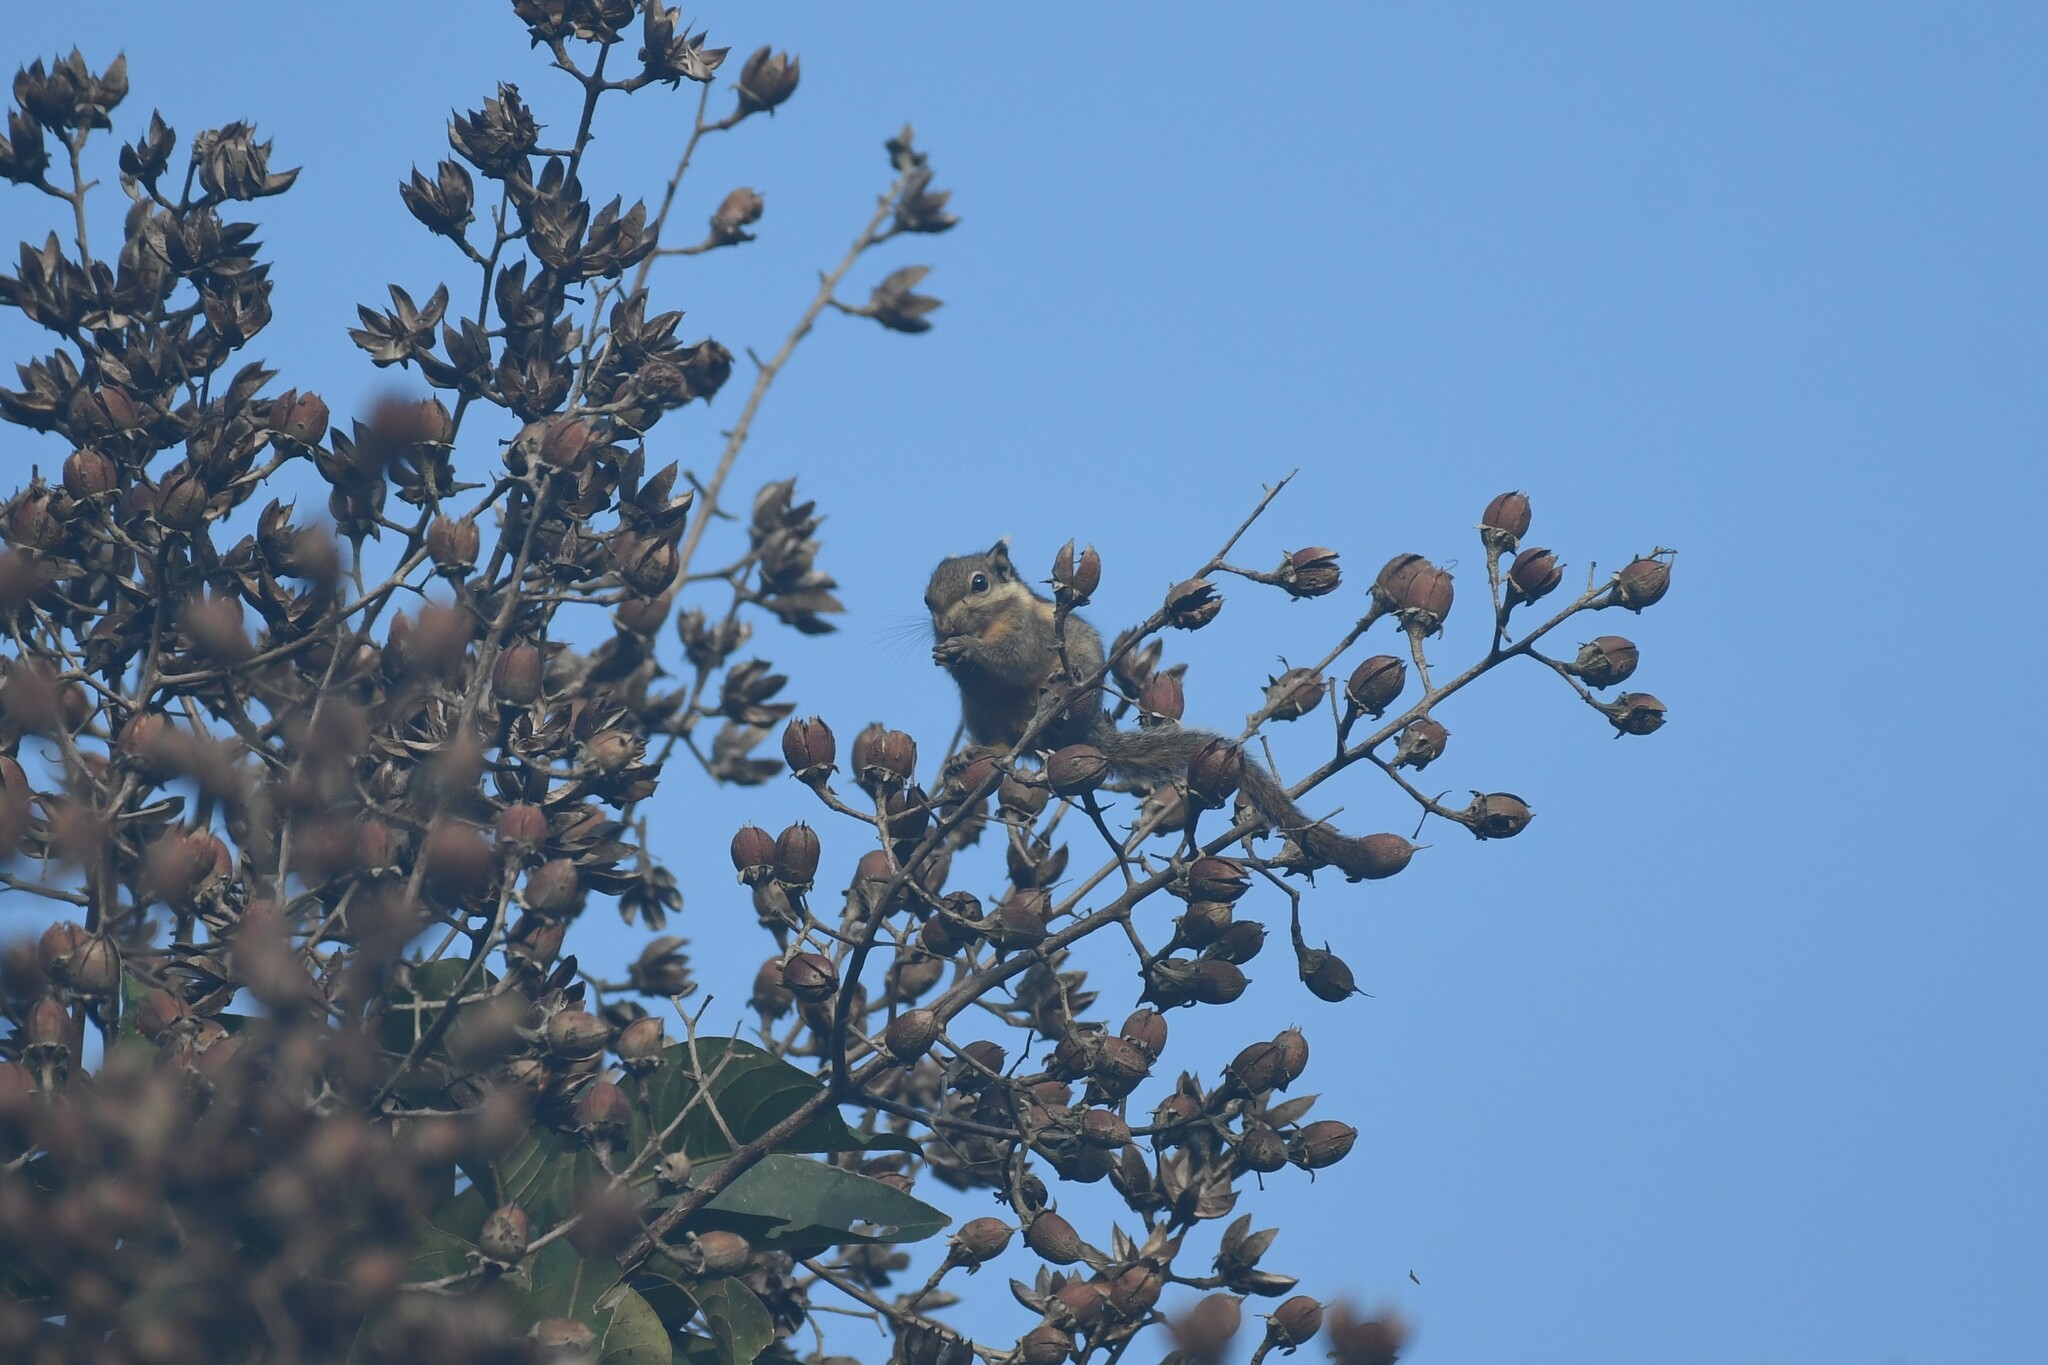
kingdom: Animalia
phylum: Chordata
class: Mammalia
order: Rodentia
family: Sciuridae
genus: Tamiops
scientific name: Tamiops mcclellandii
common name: Himalayan striped squirrel
